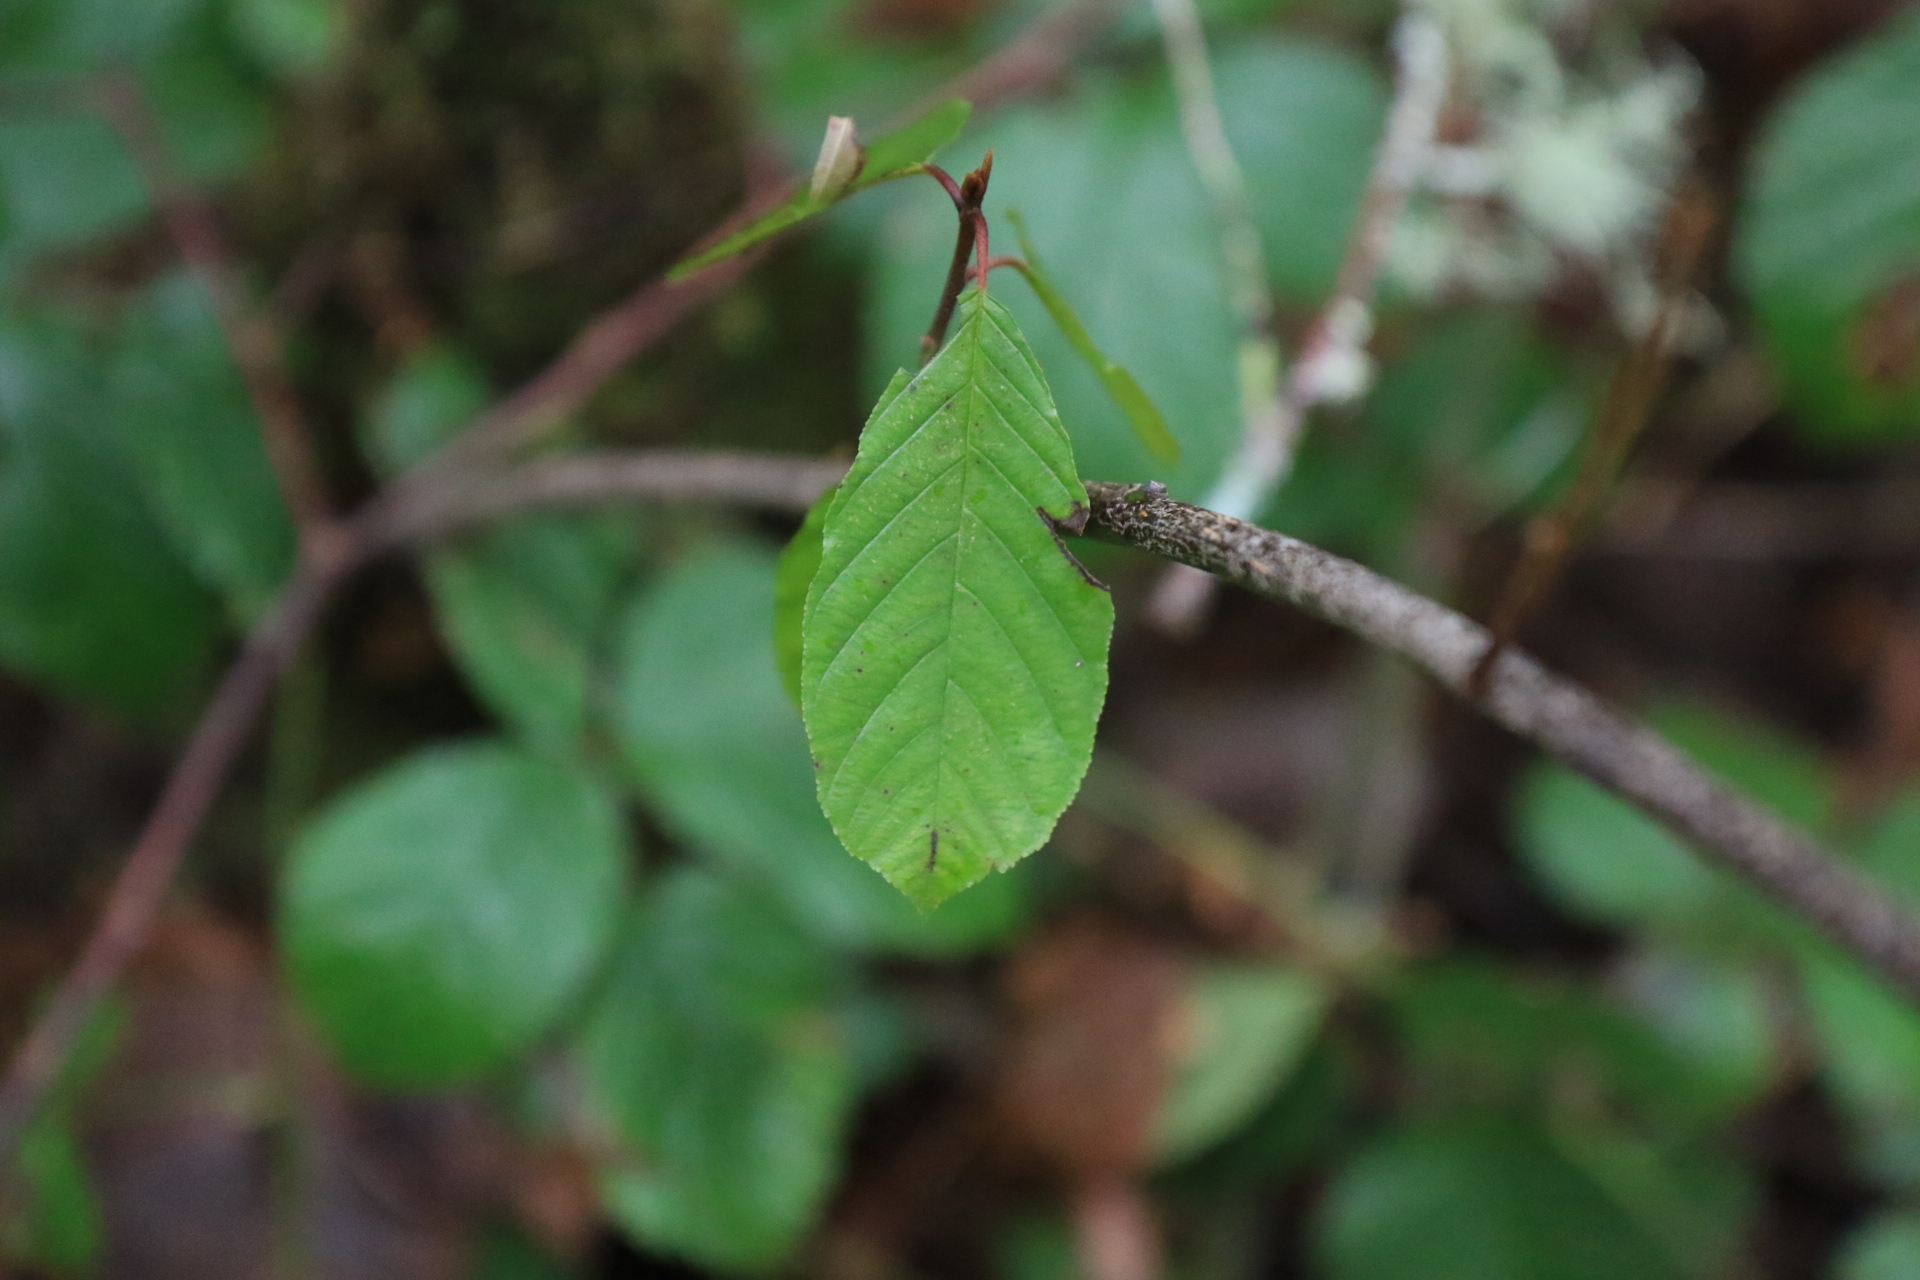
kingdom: Plantae
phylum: Tracheophyta
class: Magnoliopsida
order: Rosales
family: Rhamnaceae
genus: Frangula
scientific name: Frangula purshiana
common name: Cascara buckthorn
